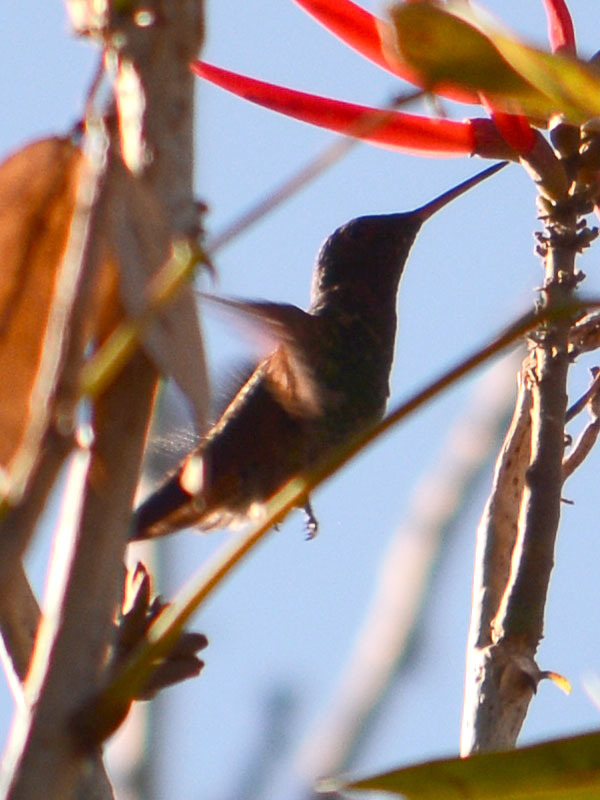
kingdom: Animalia
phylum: Chordata
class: Aves
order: Apodiformes
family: Trochilidae
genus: Saucerottia
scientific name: Saucerottia beryllina
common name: Berylline hummingbird
